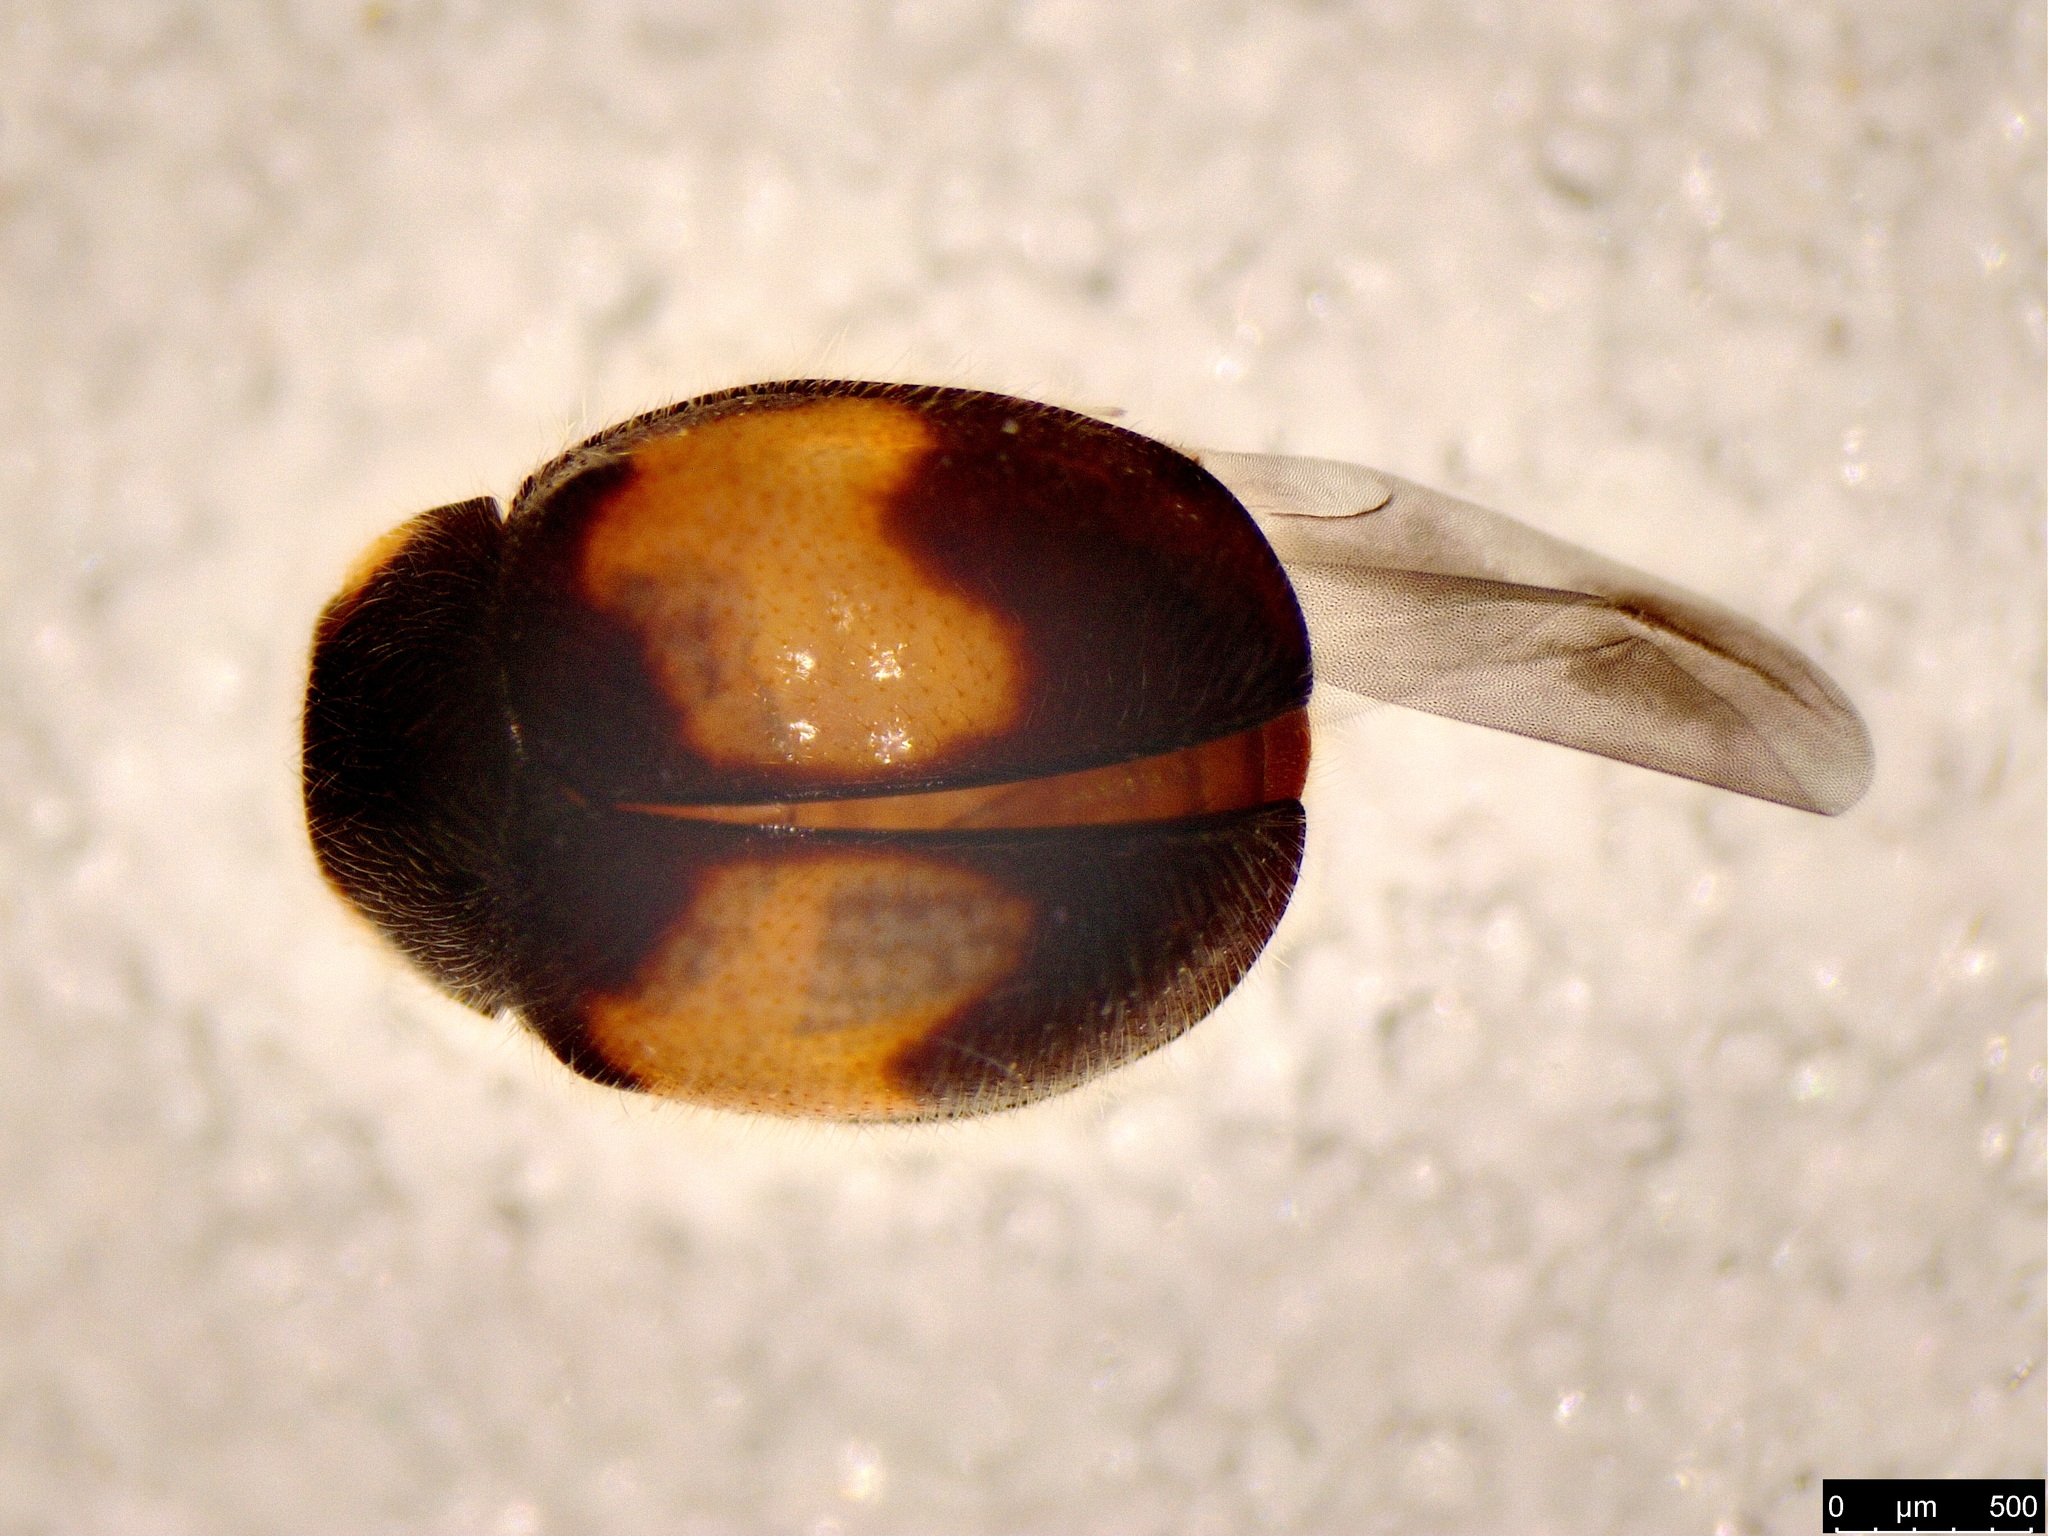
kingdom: Animalia
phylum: Arthropoda
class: Insecta
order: Coleoptera
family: Coccinellidae
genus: Scymnus
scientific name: Scymnus notescens
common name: Minute two-spotted ladybird beetle
